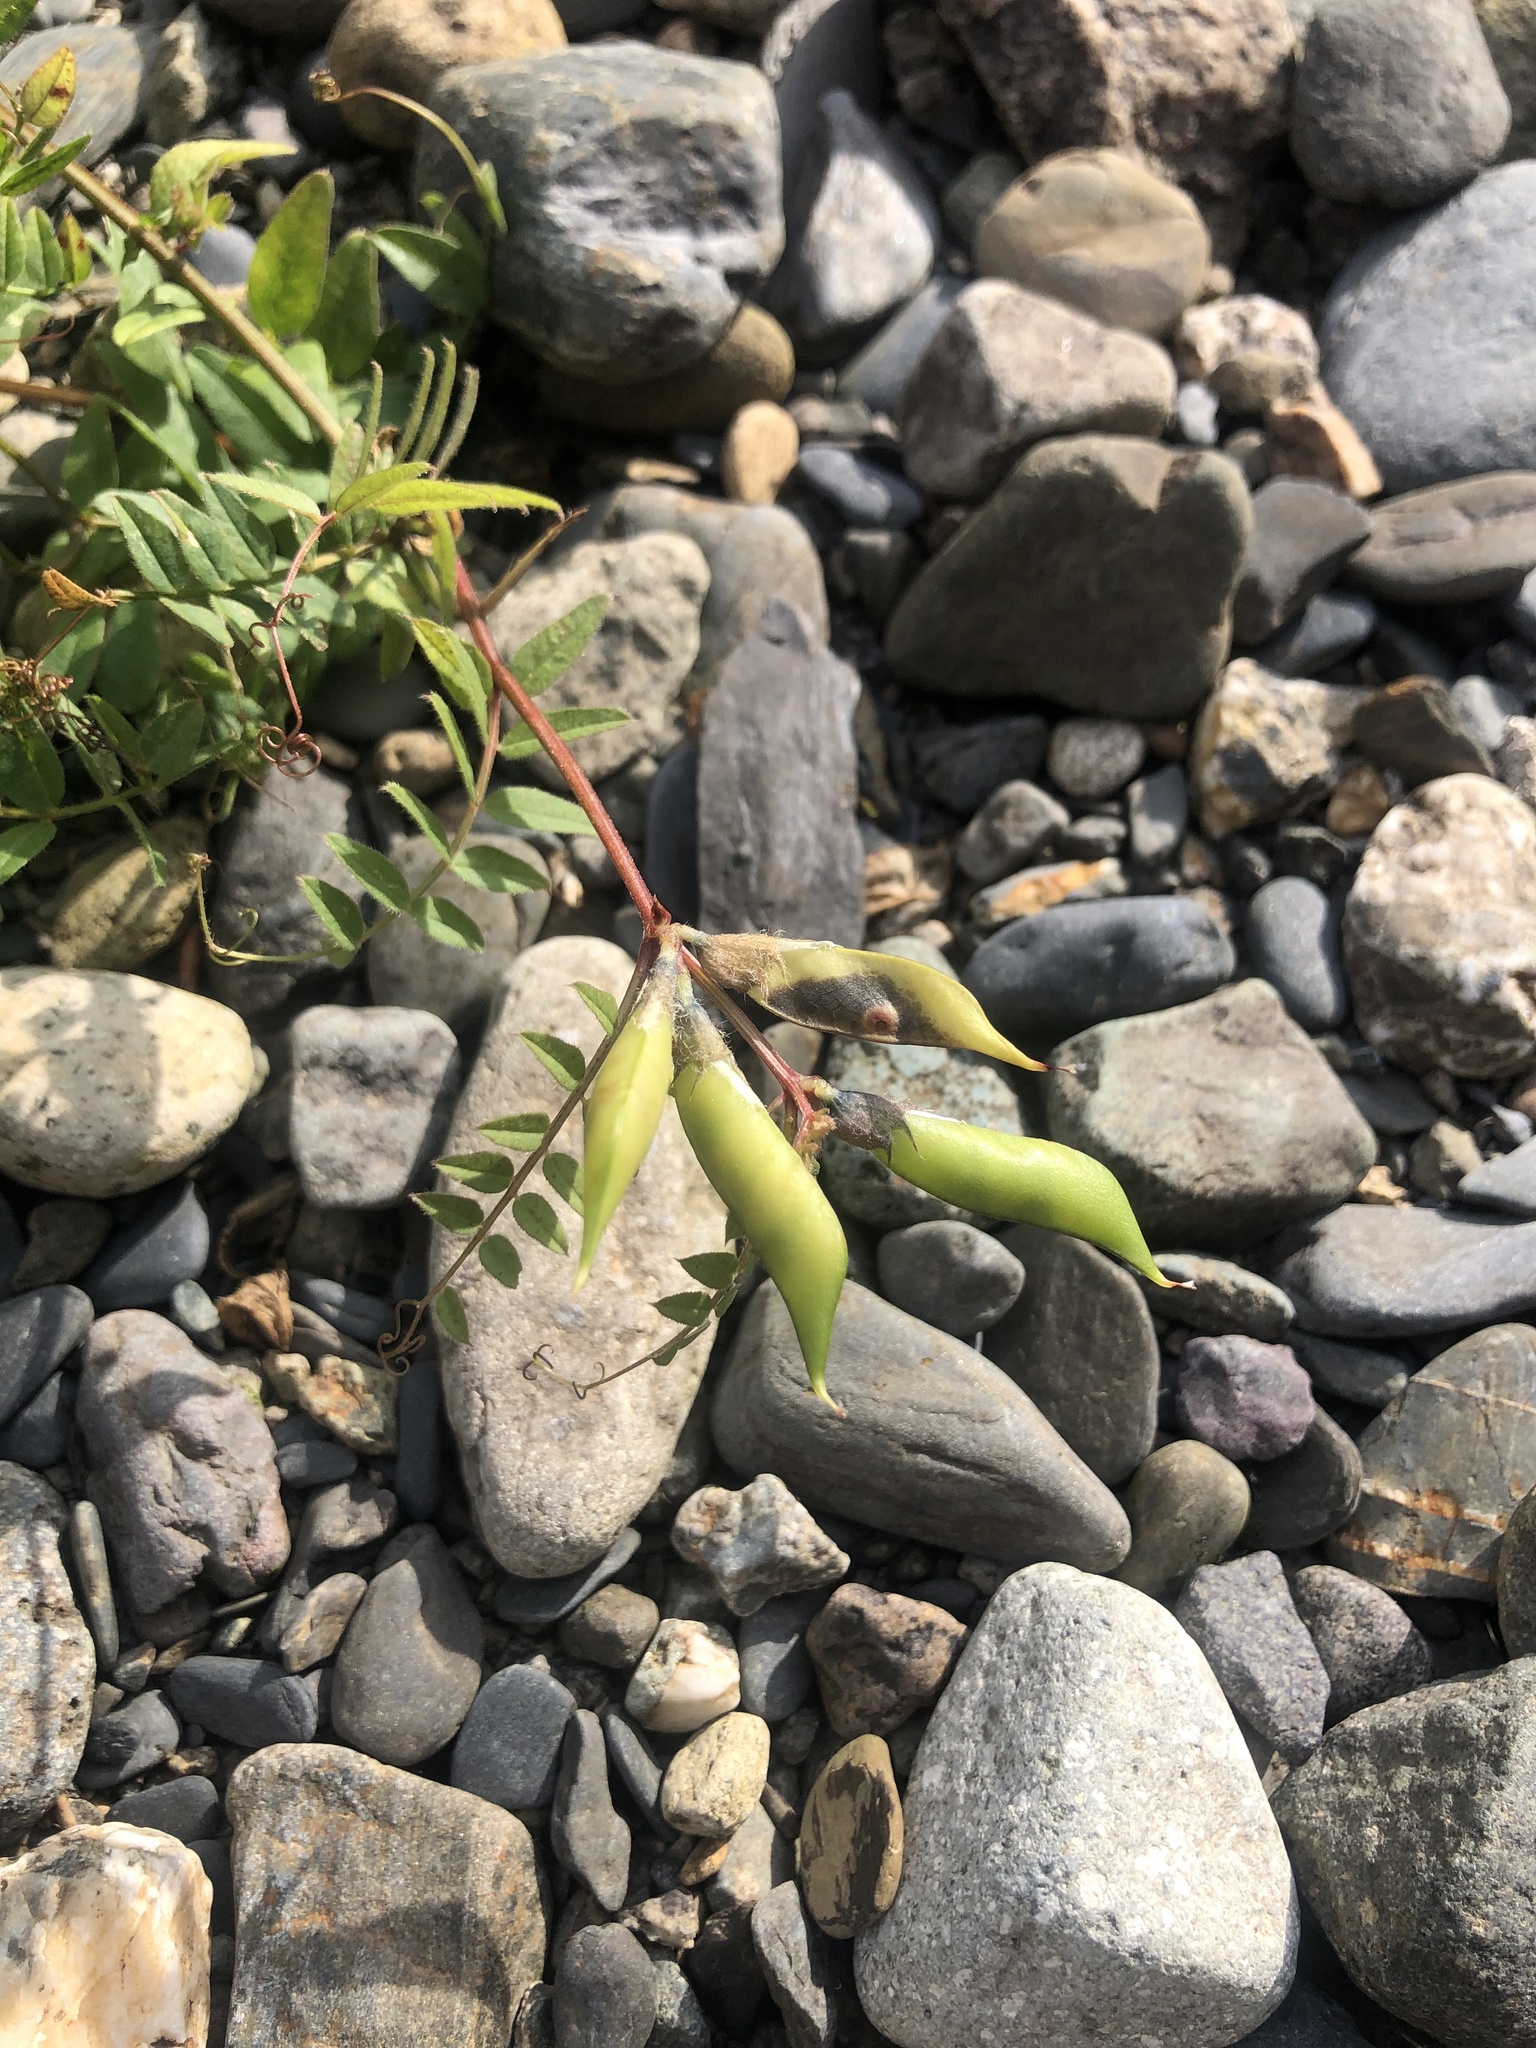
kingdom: Plantae
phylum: Tracheophyta
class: Magnoliopsida
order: Fabales
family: Fabaceae
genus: Vicia
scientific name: Vicia sepium
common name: Bush vetch
